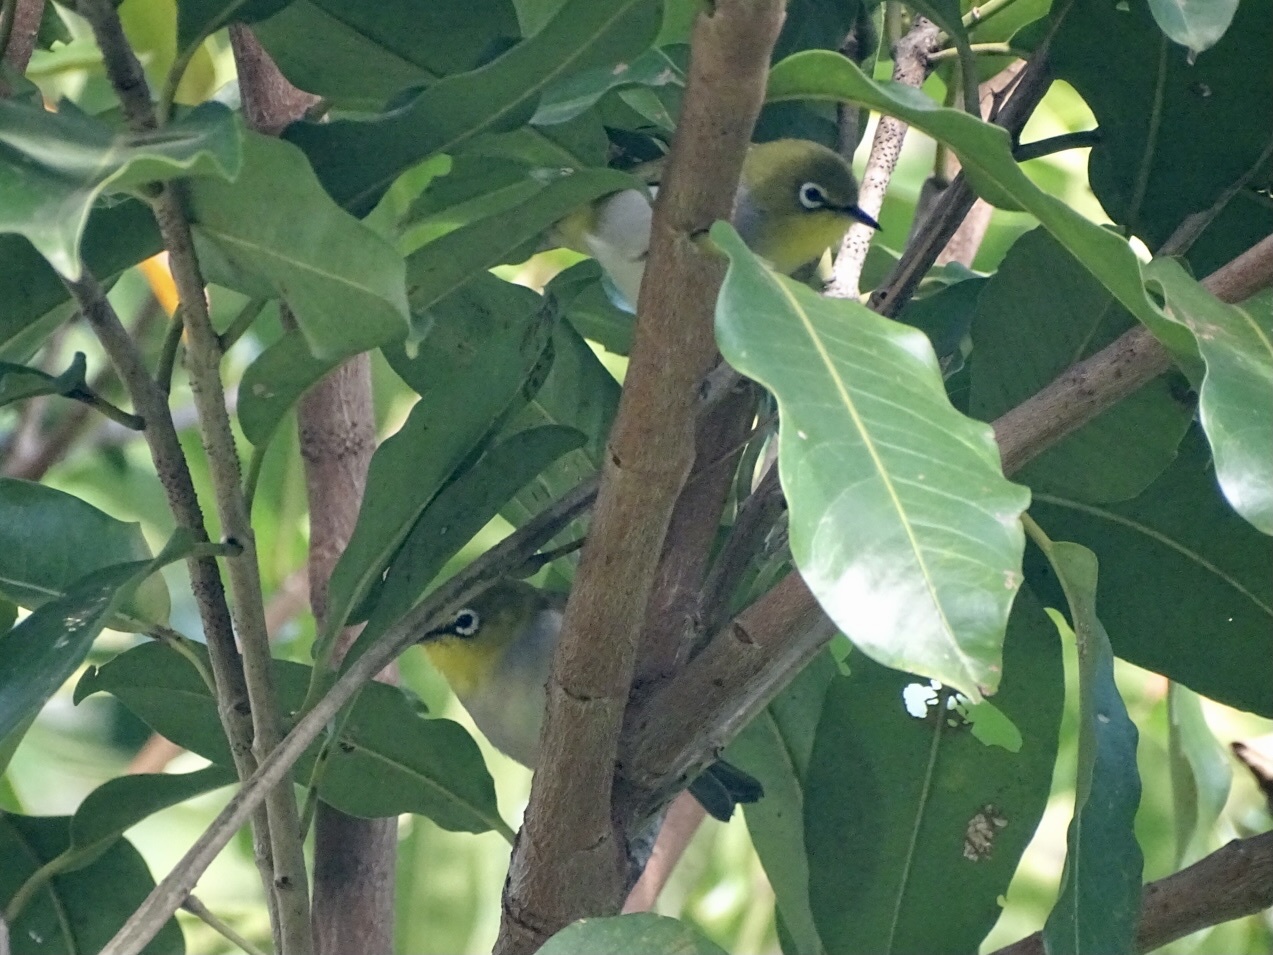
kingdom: Animalia
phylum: Chordata
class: Aves
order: Passeriformes
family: Zosteropidae
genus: Zosterops
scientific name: Zosterops simplex
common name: Swinhoe's white-eye
